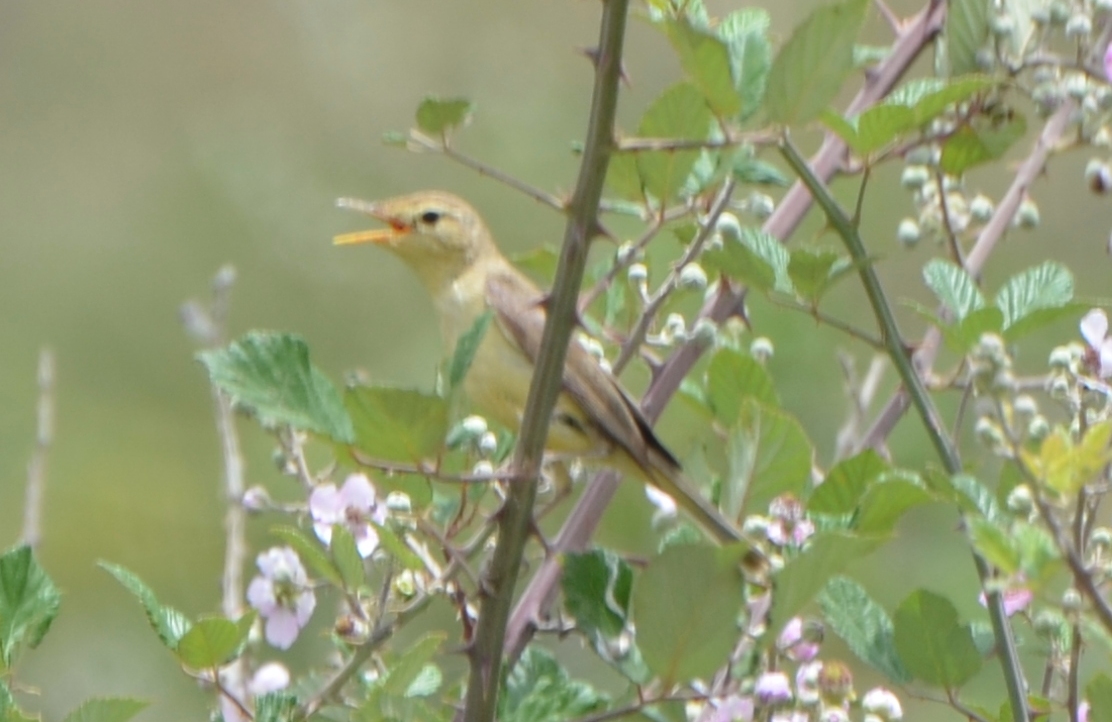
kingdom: Animalia
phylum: Chordata
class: Aves
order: Passeriformes
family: Acrocephalidae
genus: Hippolais
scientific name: Hippolais polyglotta
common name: Melodious warbler
